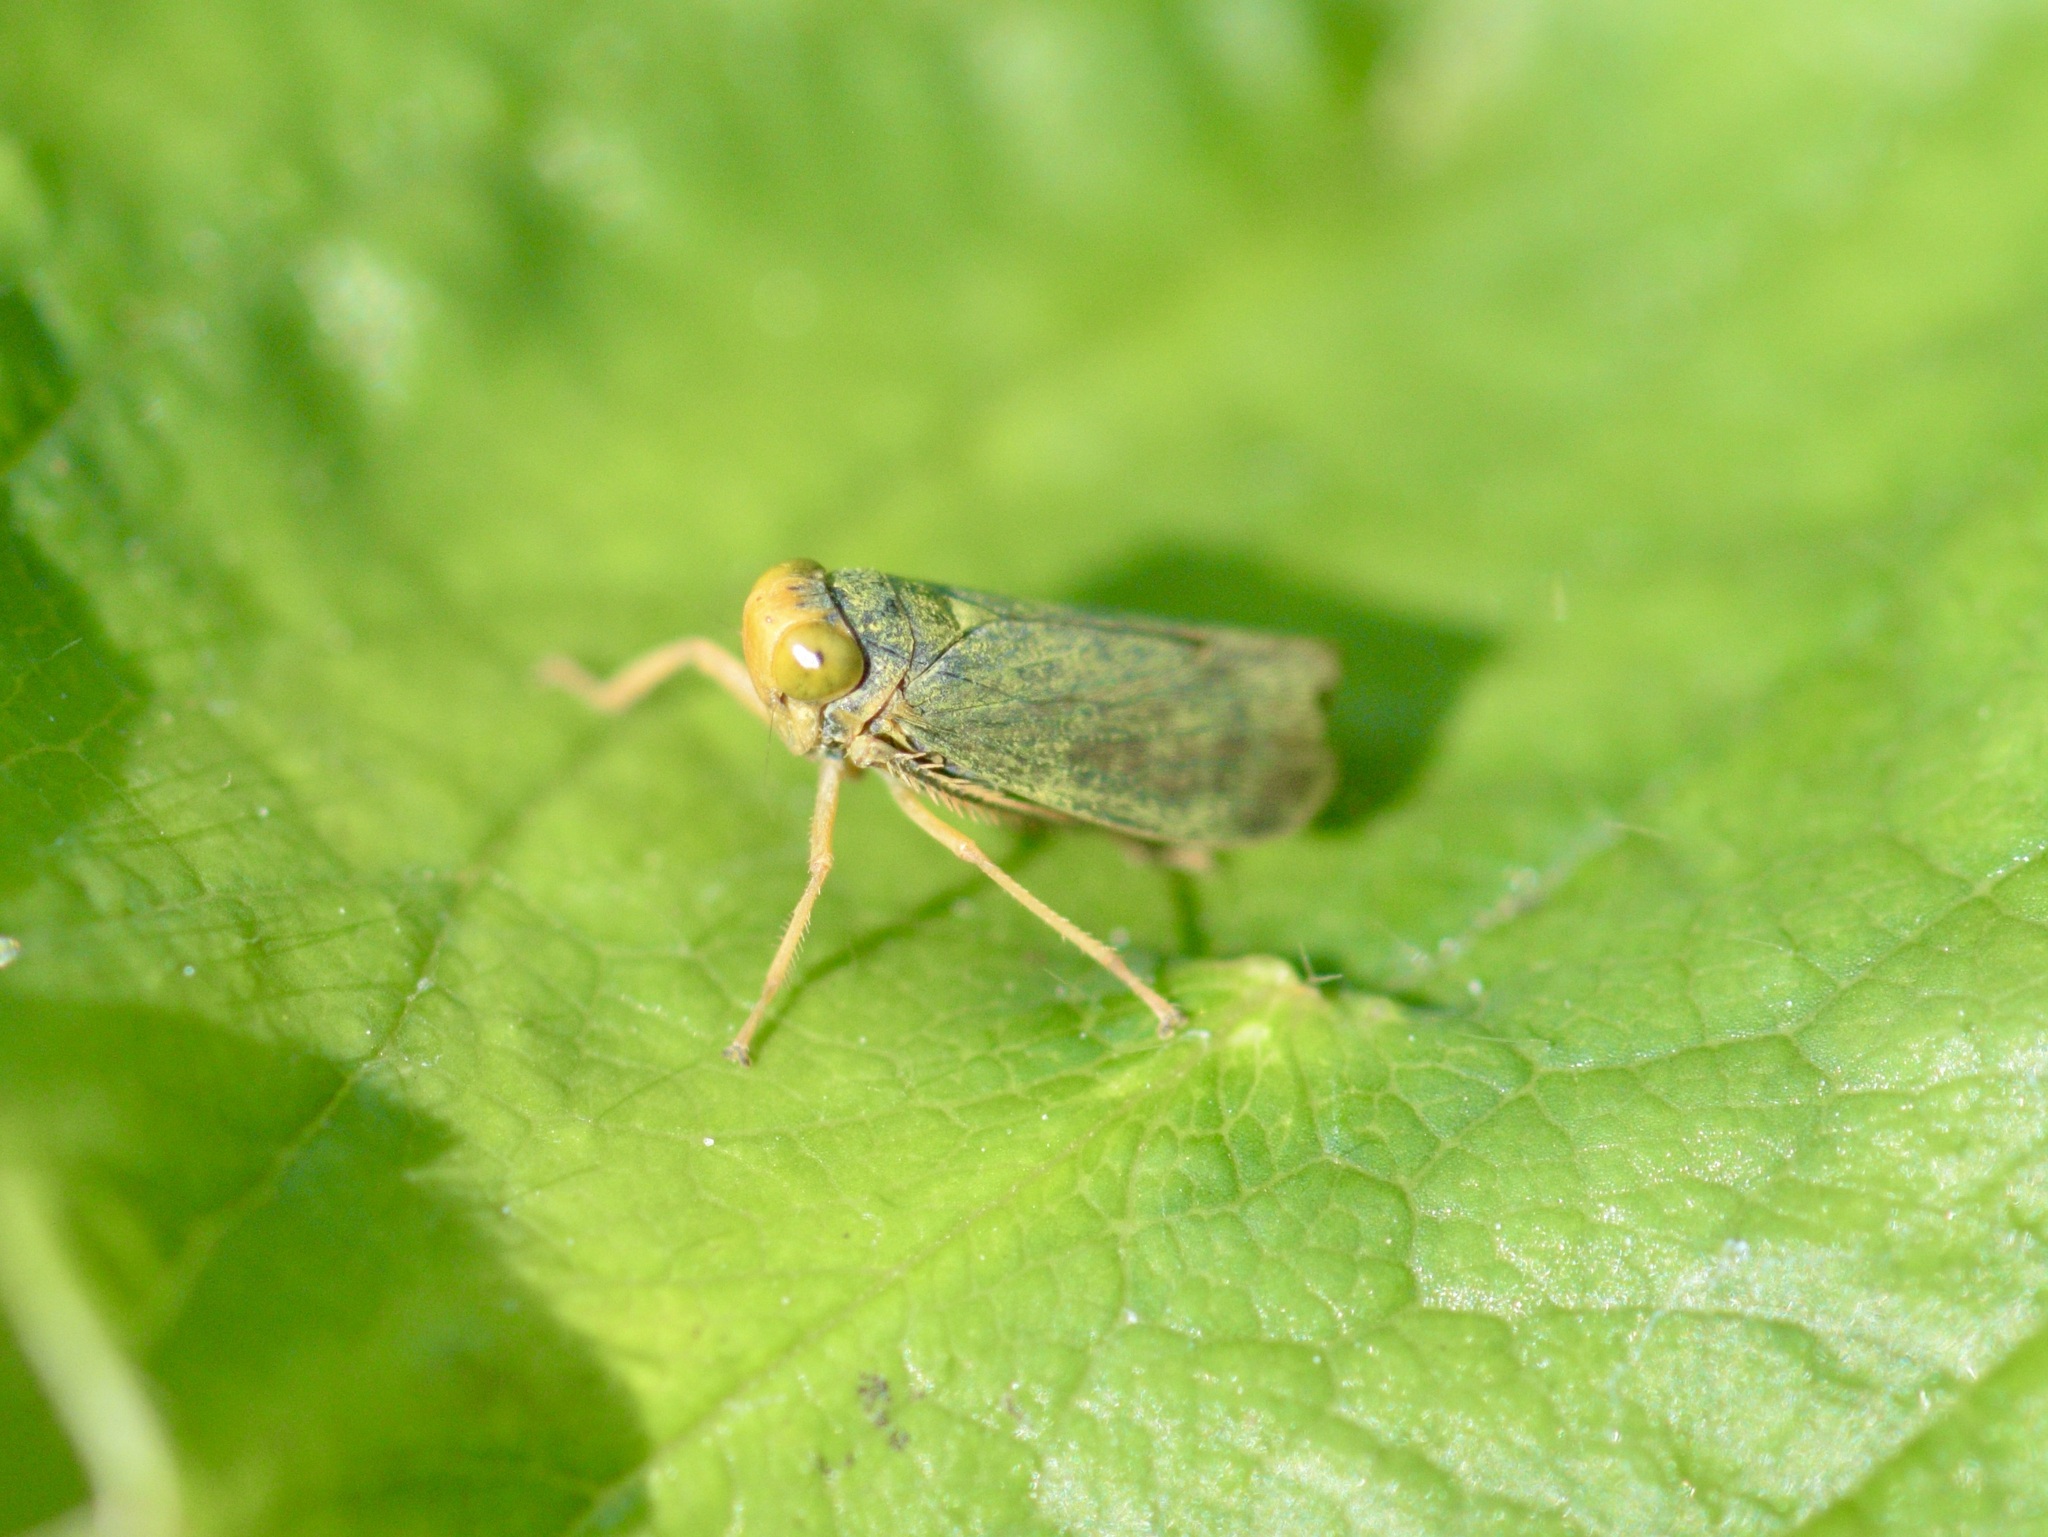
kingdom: Animalia
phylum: Arthropoda
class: Insecta
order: Hemiptera
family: Cicadellidae
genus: Jikradia
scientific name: Jikradia olitoria
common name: Coppery leafhopper
